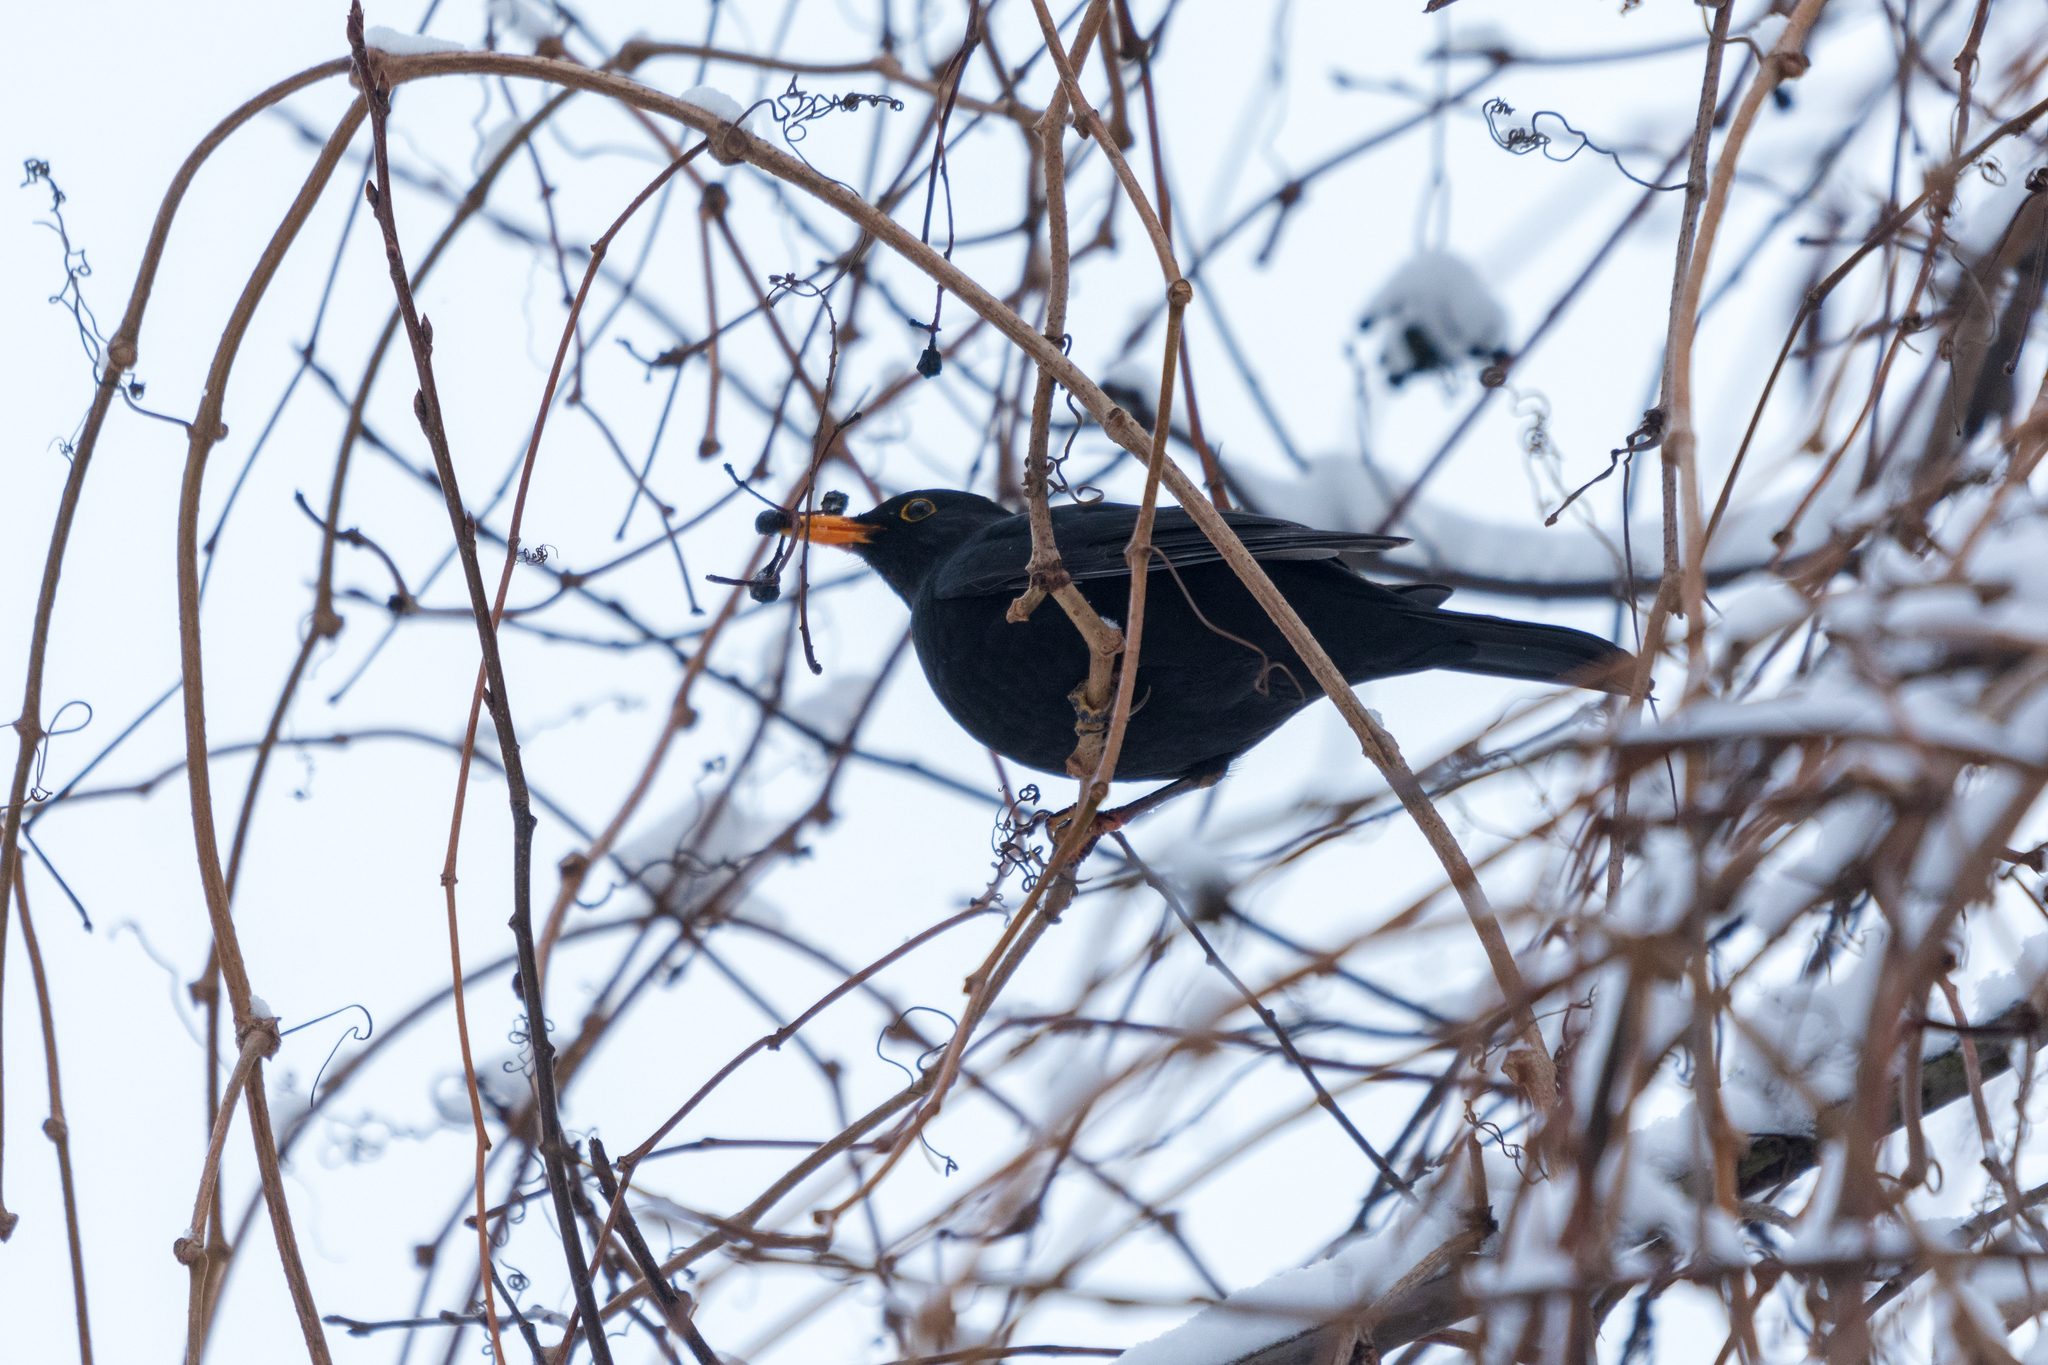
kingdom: Animalia
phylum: Chordata
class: Aves
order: Passeriformes
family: Turdidae
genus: Turdus
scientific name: Turdus merula
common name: Common blackbird
